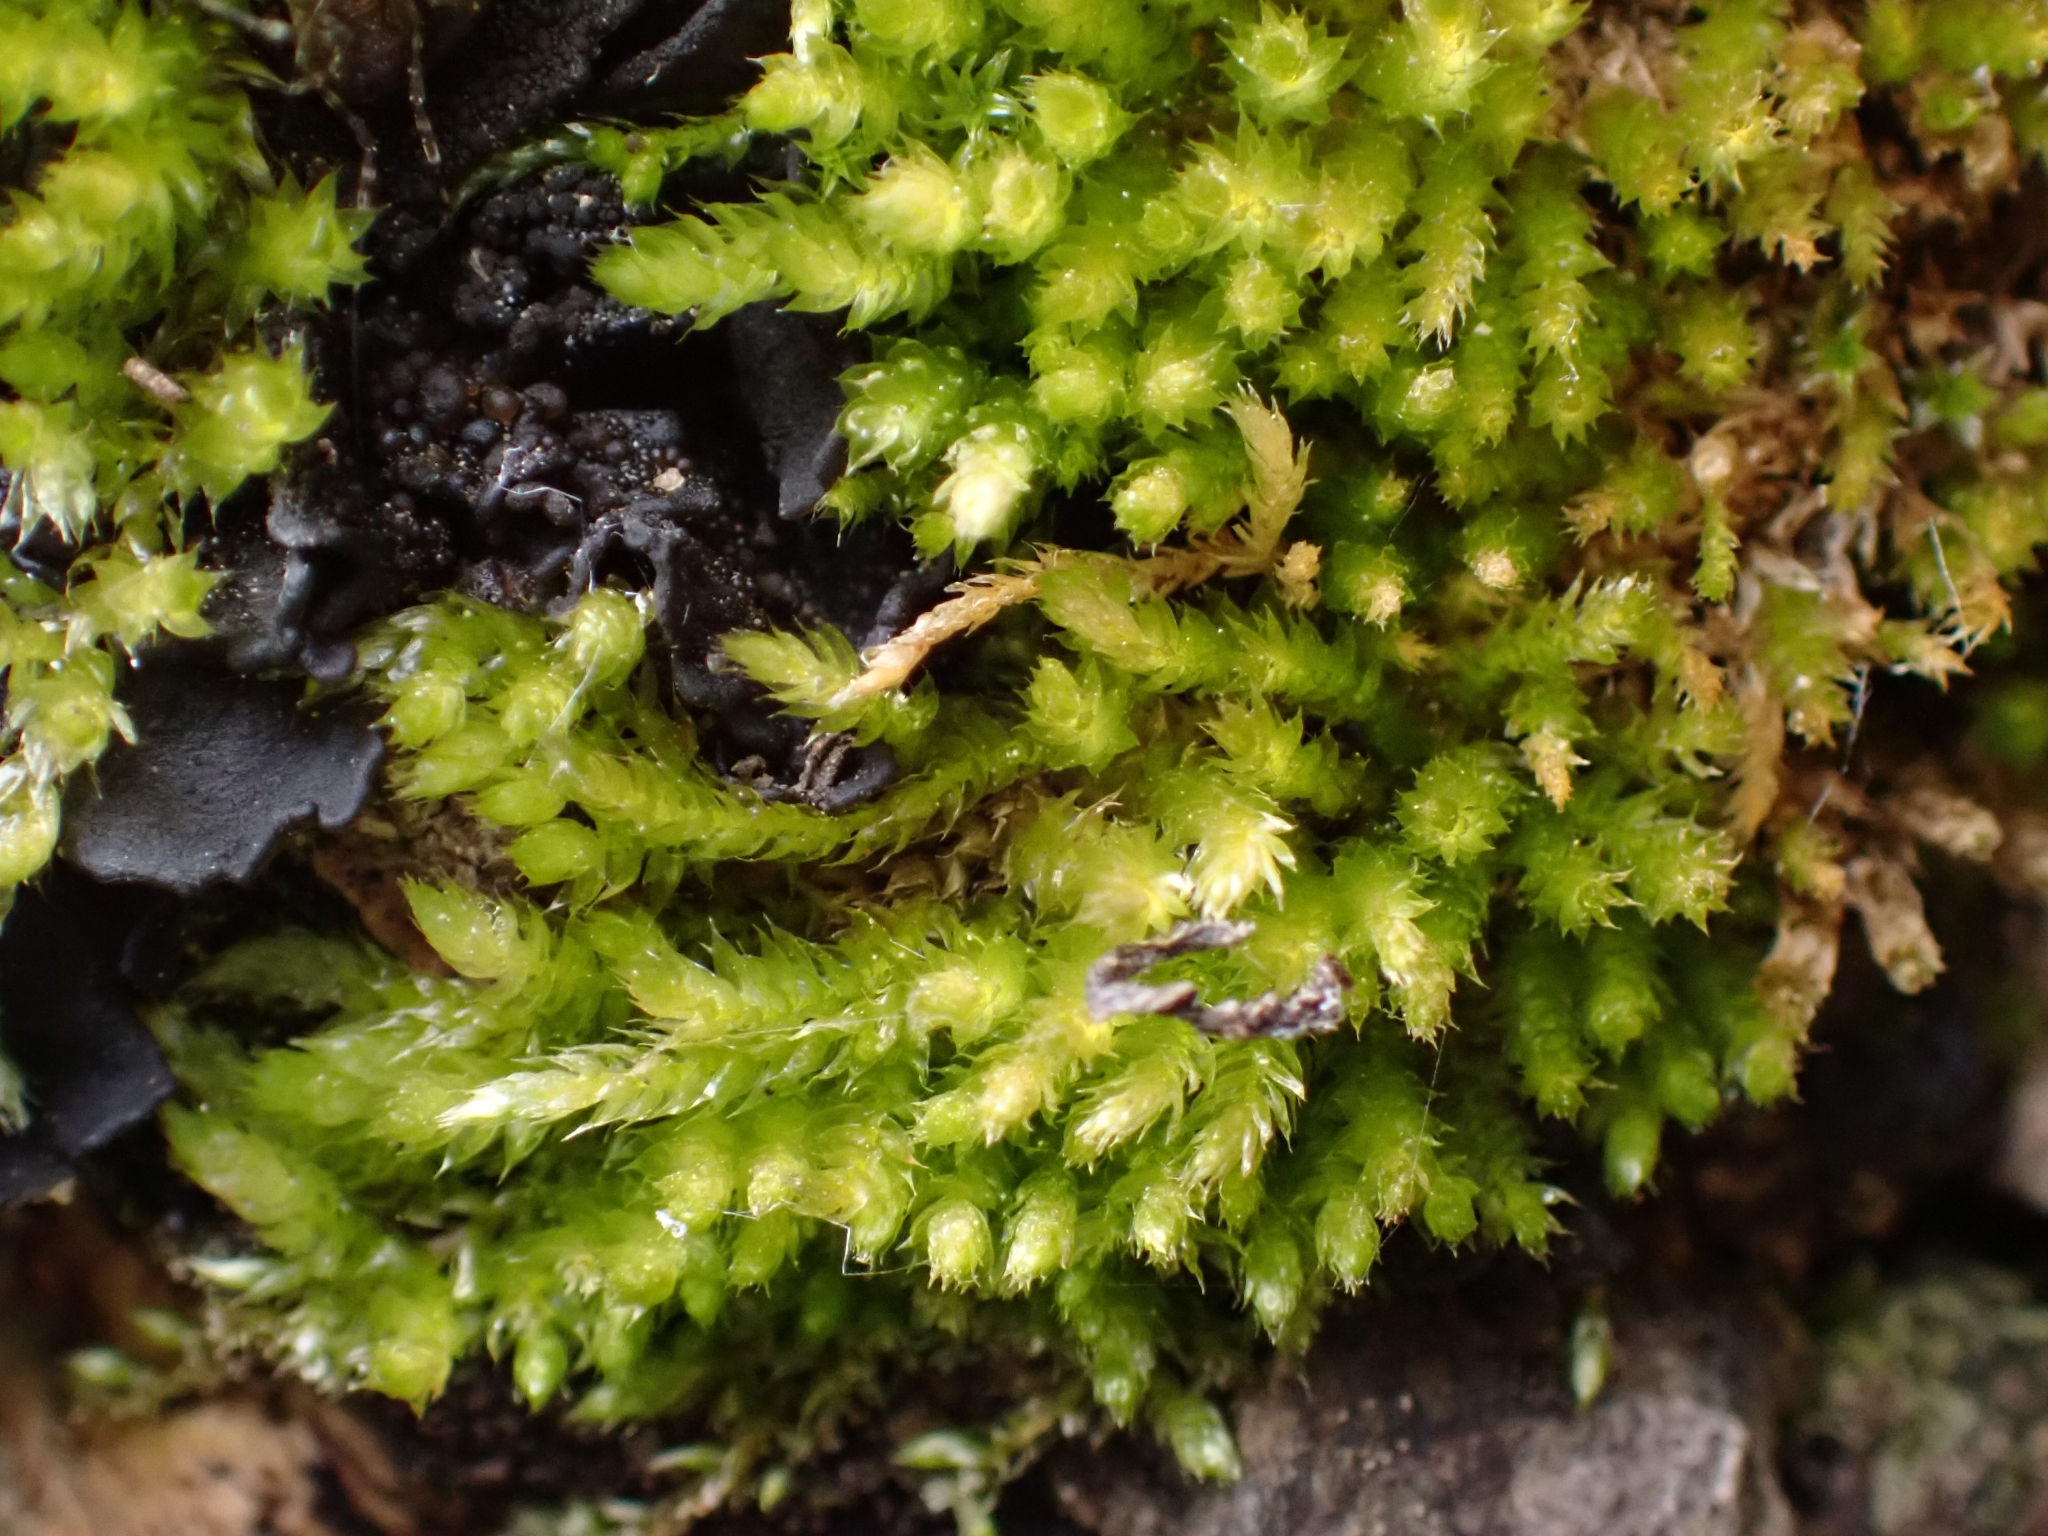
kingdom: Plantae
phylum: Bryophyta
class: Bryopsida
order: Hypnales
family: Brachytheciaceae
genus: Rhynchostegium
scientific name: Rhynchostegium confertum
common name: Clustered feather-moss
